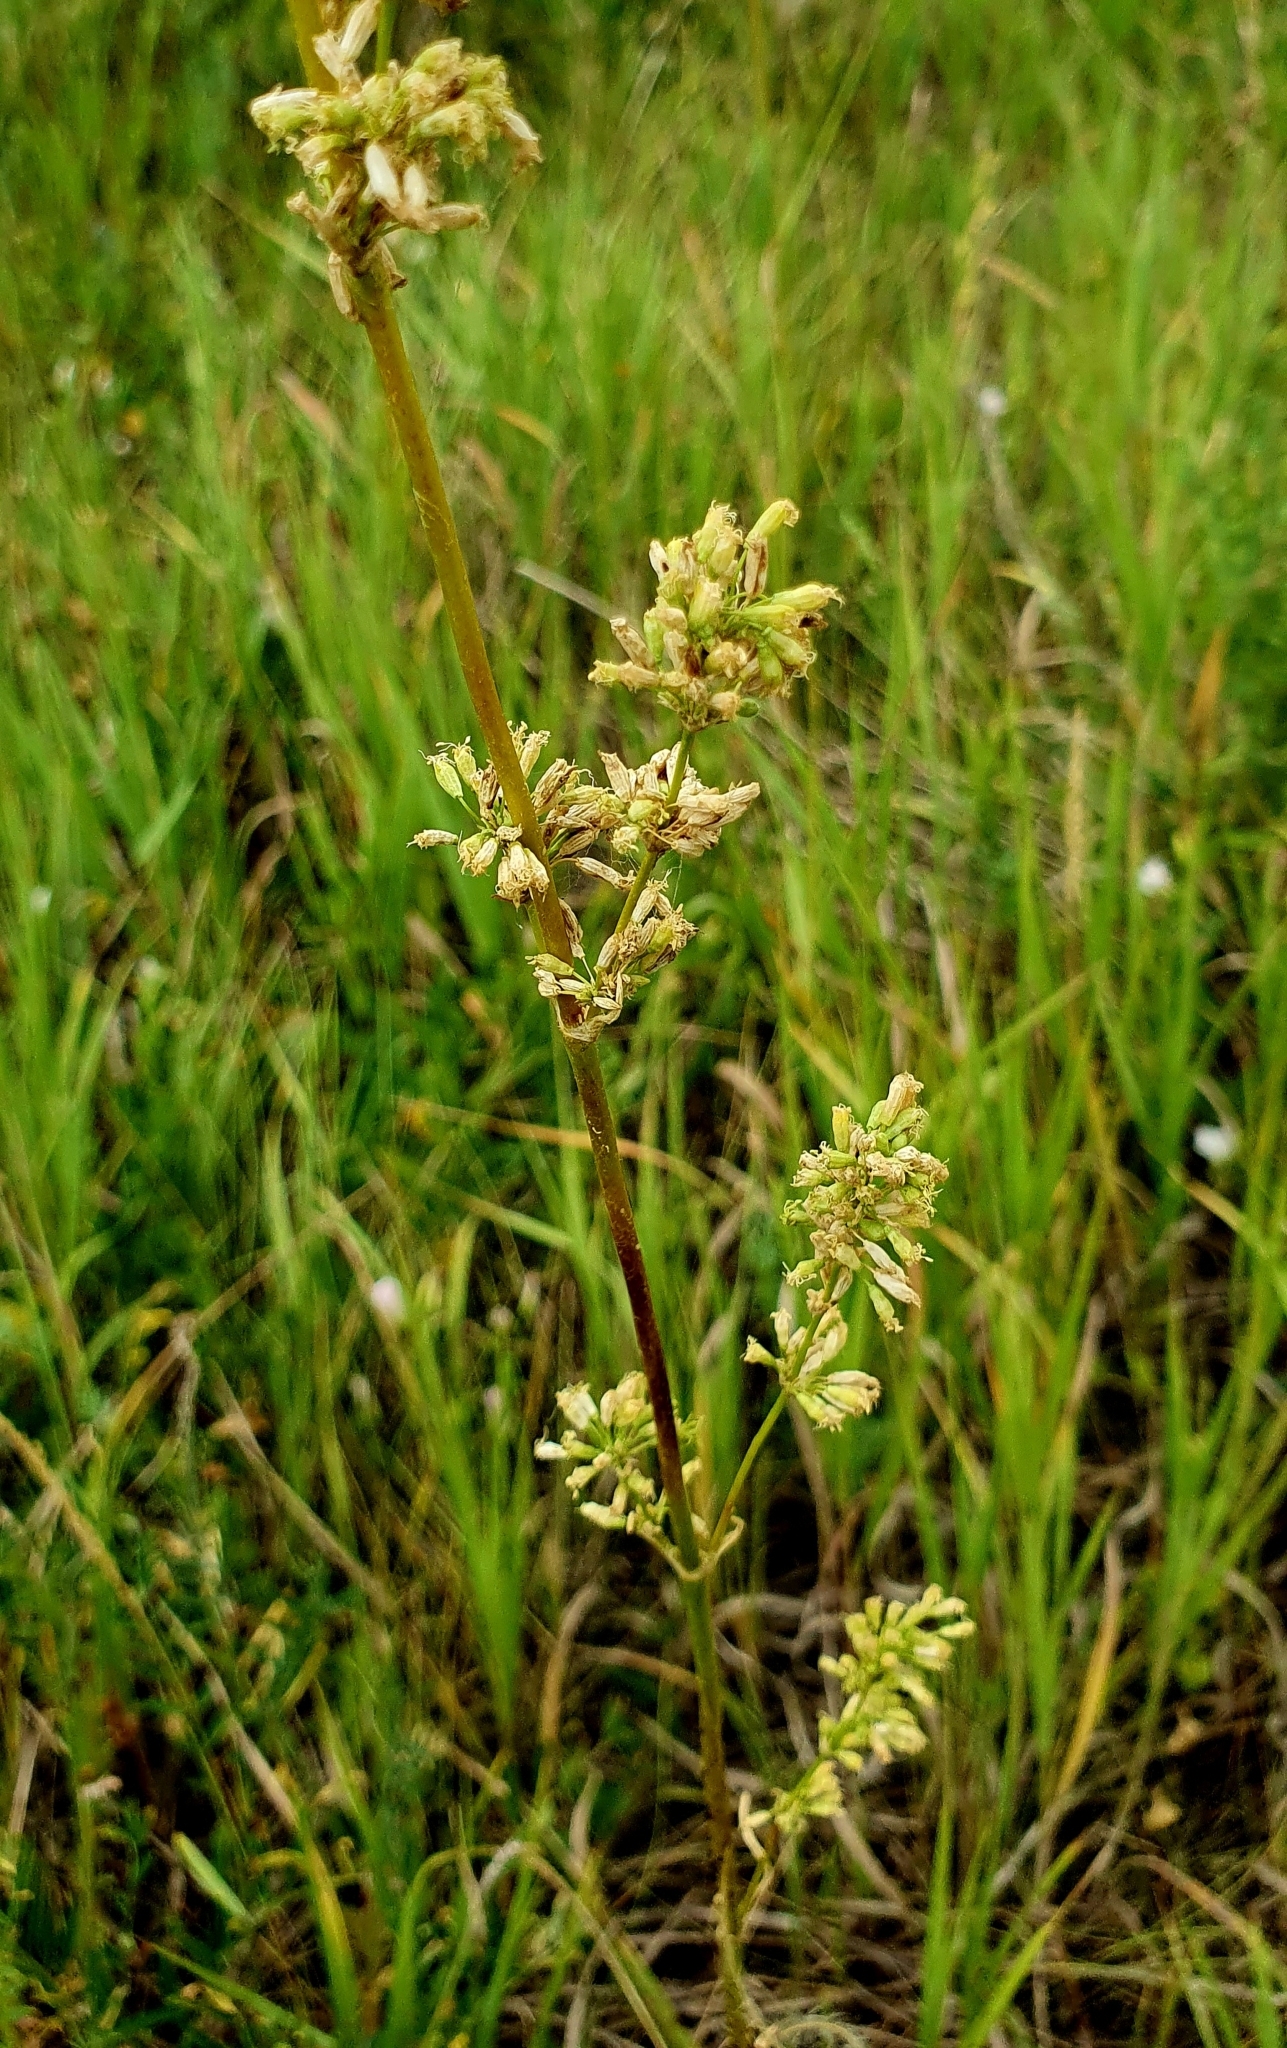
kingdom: Plantae
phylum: Tracheophyta
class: Magnoliopsida
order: Caryophyllales
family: Caryophyllaceae
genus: Silene
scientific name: Silene chersonensis
